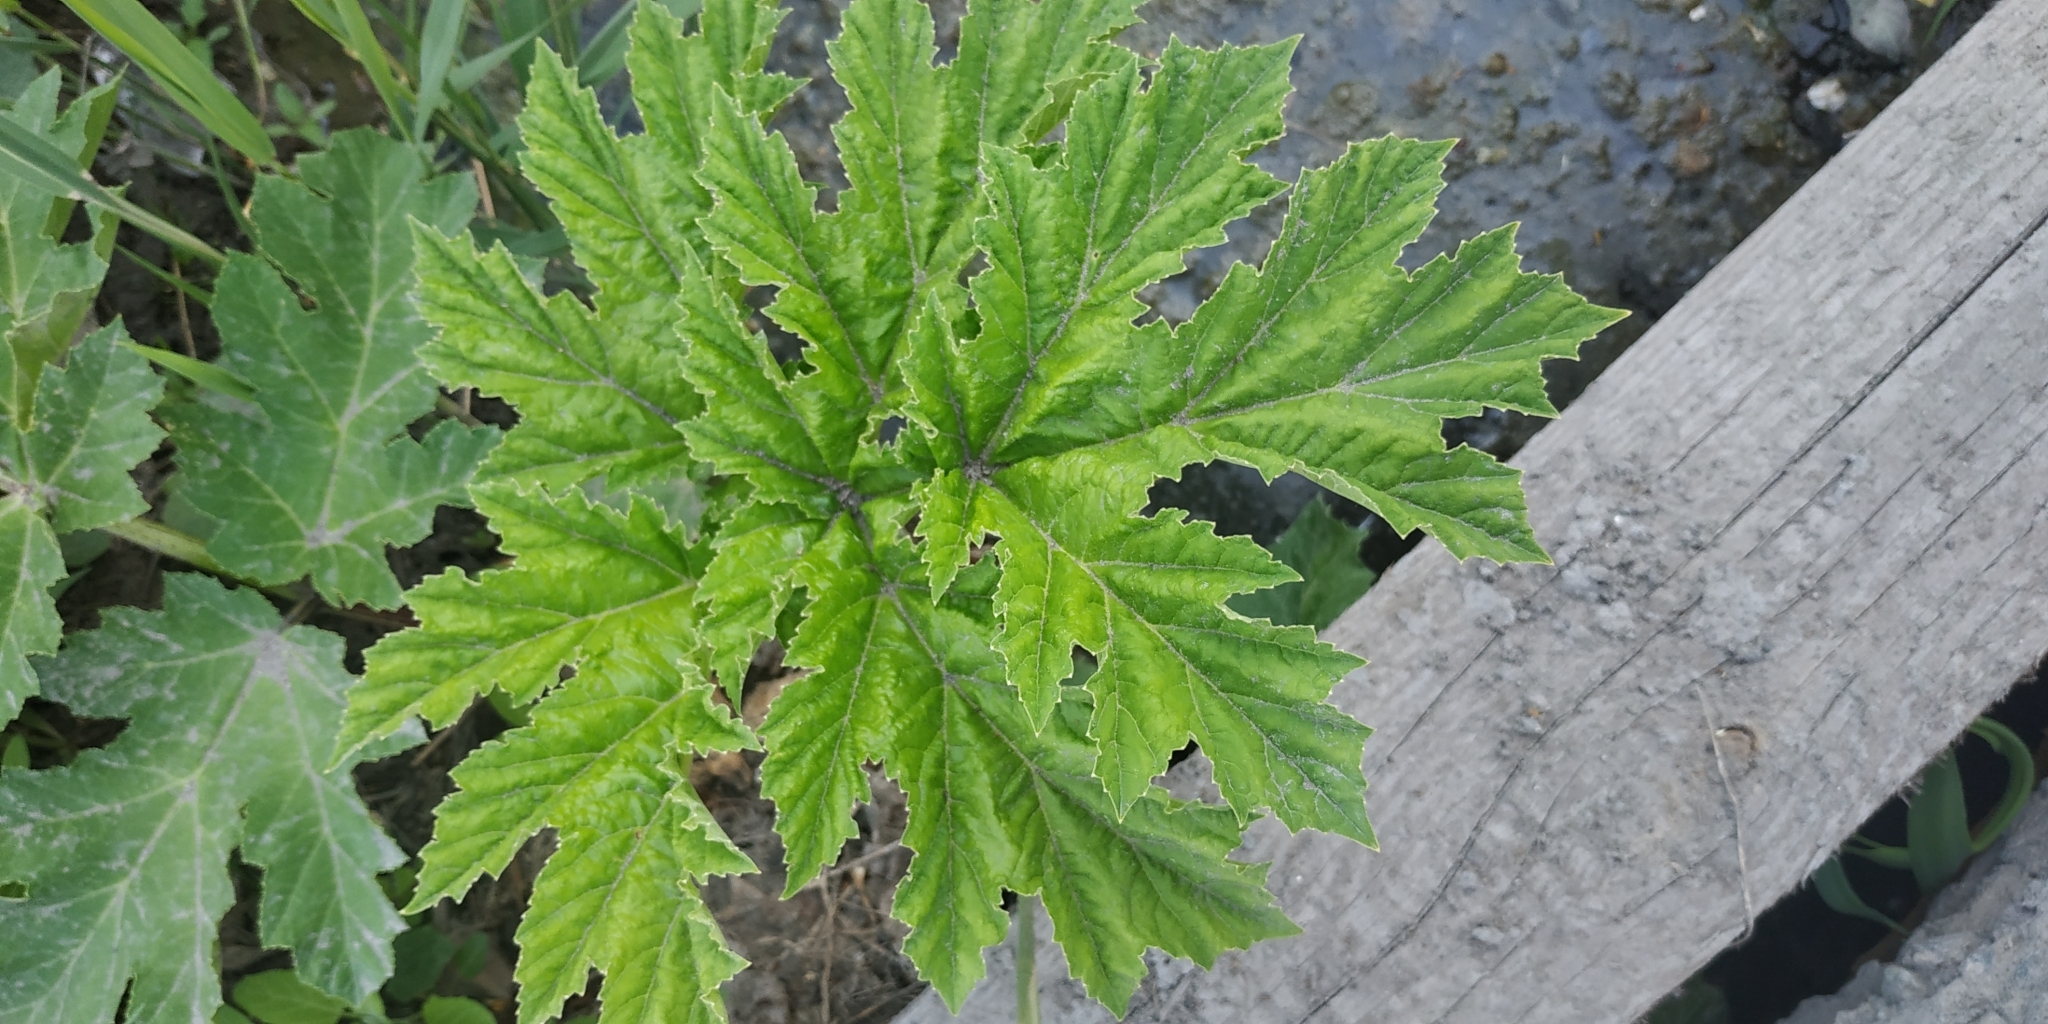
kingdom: Plantae
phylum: Tracheophyta
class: Magnoliopsida
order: Apiales
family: Apiaceae
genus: Heracleum
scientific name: Heracleum sosnowskyi
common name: Sosnowsky's hogweed
